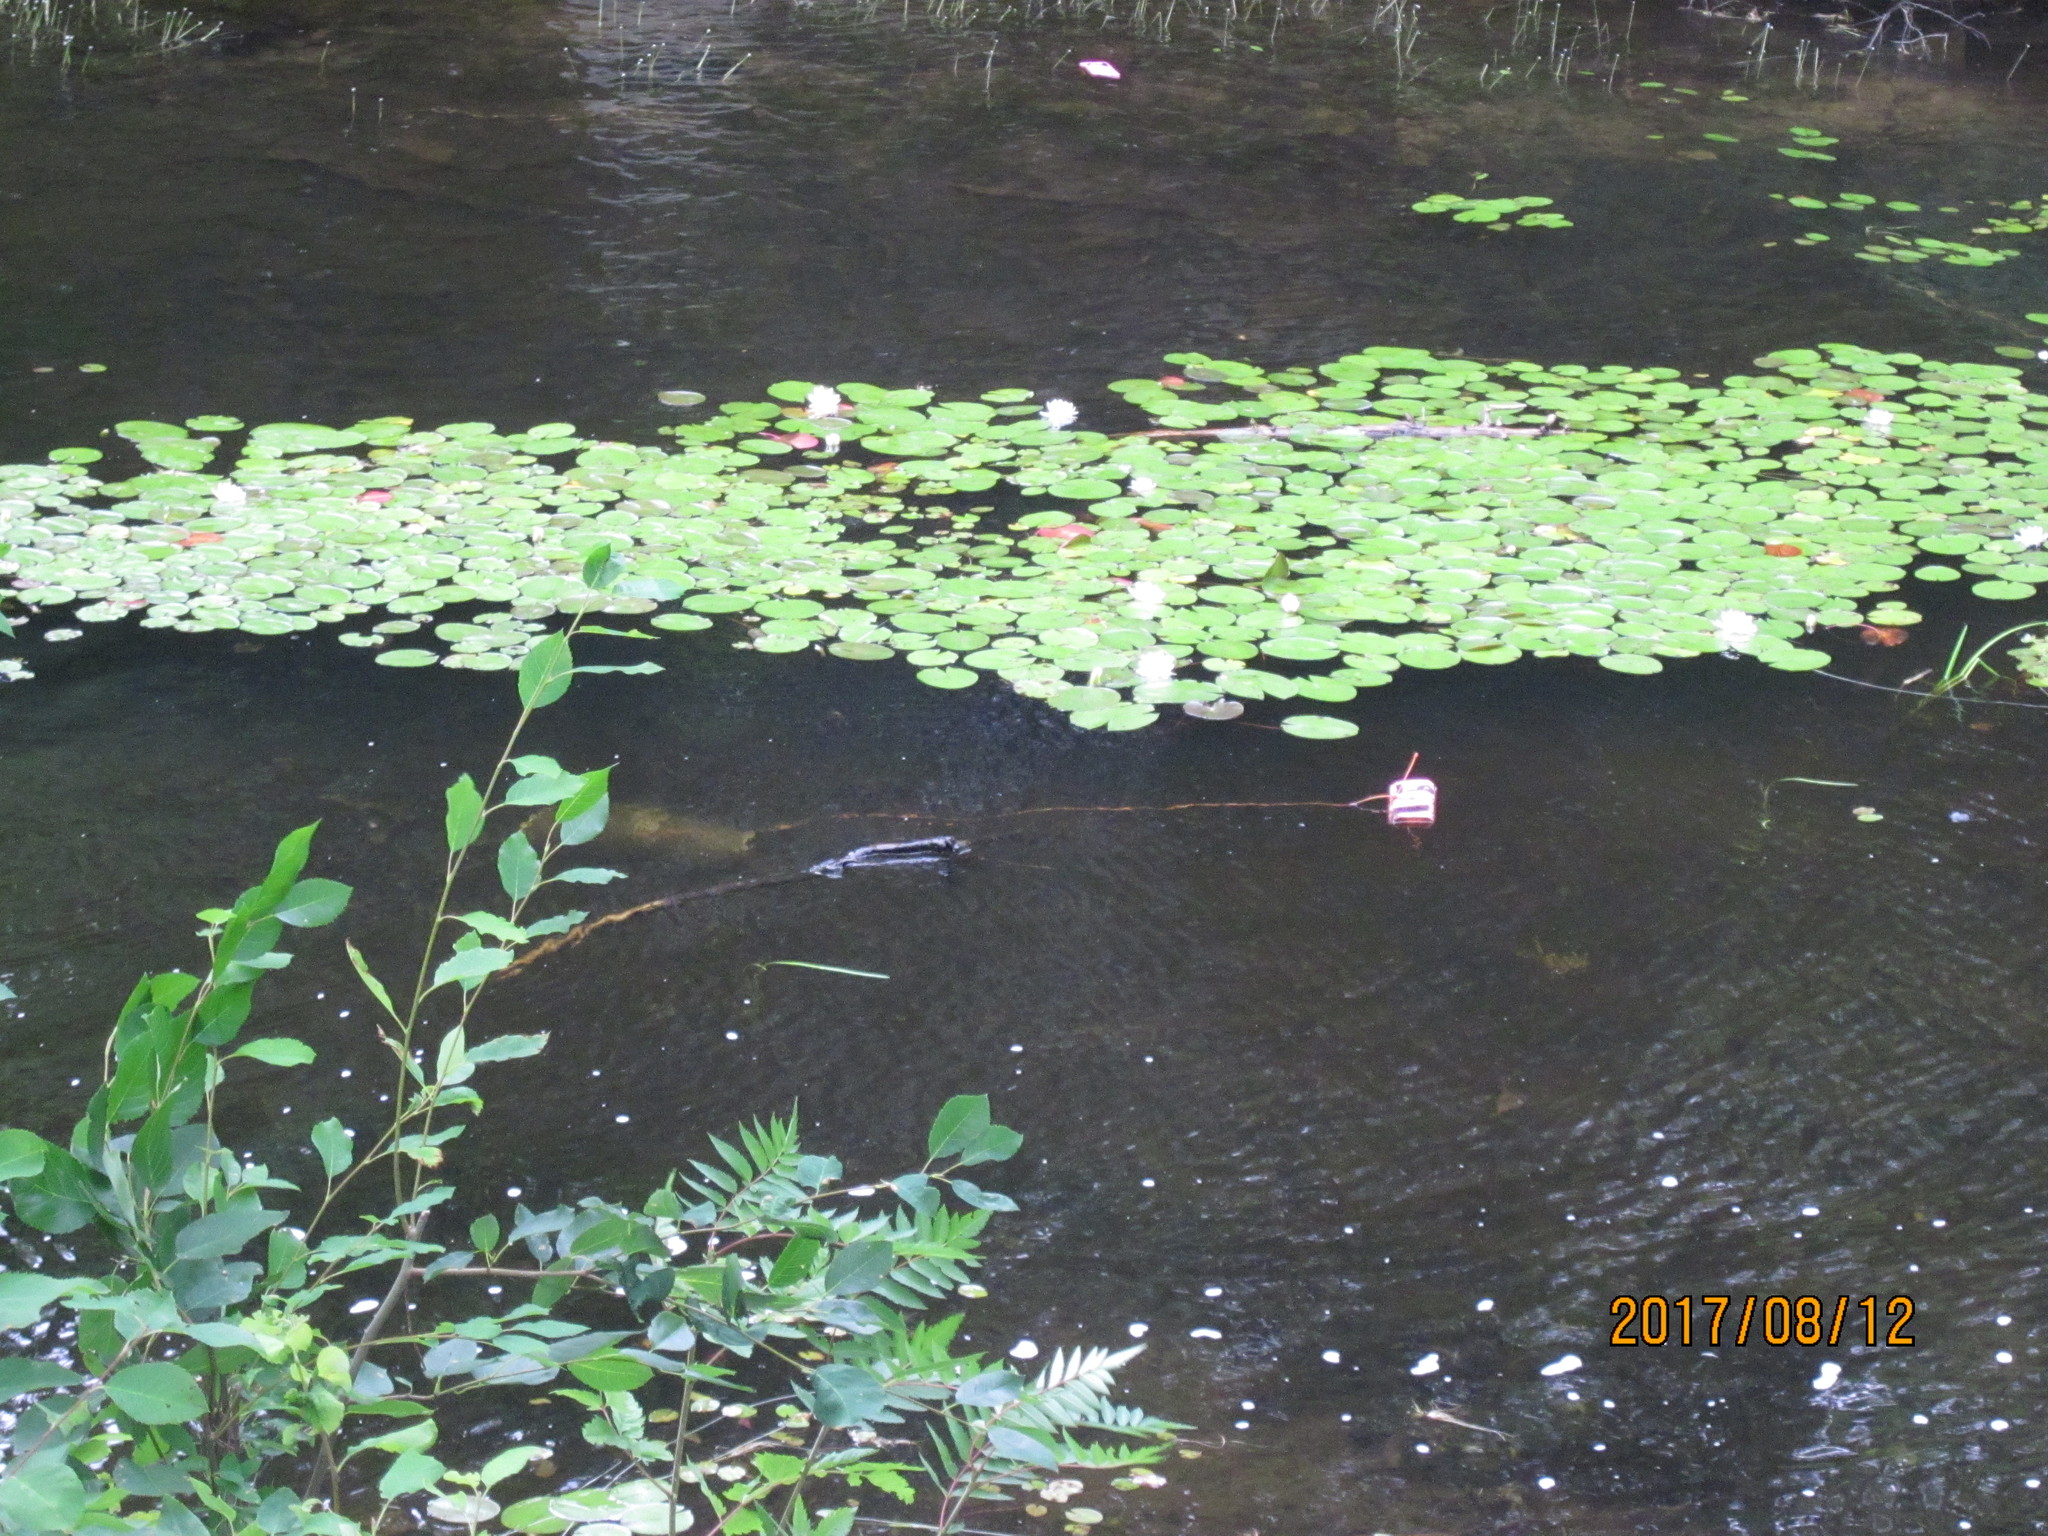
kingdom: Plantae
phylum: Tracheophyta
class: Magnoliopsida
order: Nymphaeales
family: Nymphaeaceae
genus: Nymphaea
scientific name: Nymphaea odorata
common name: Fragrant water-lily
